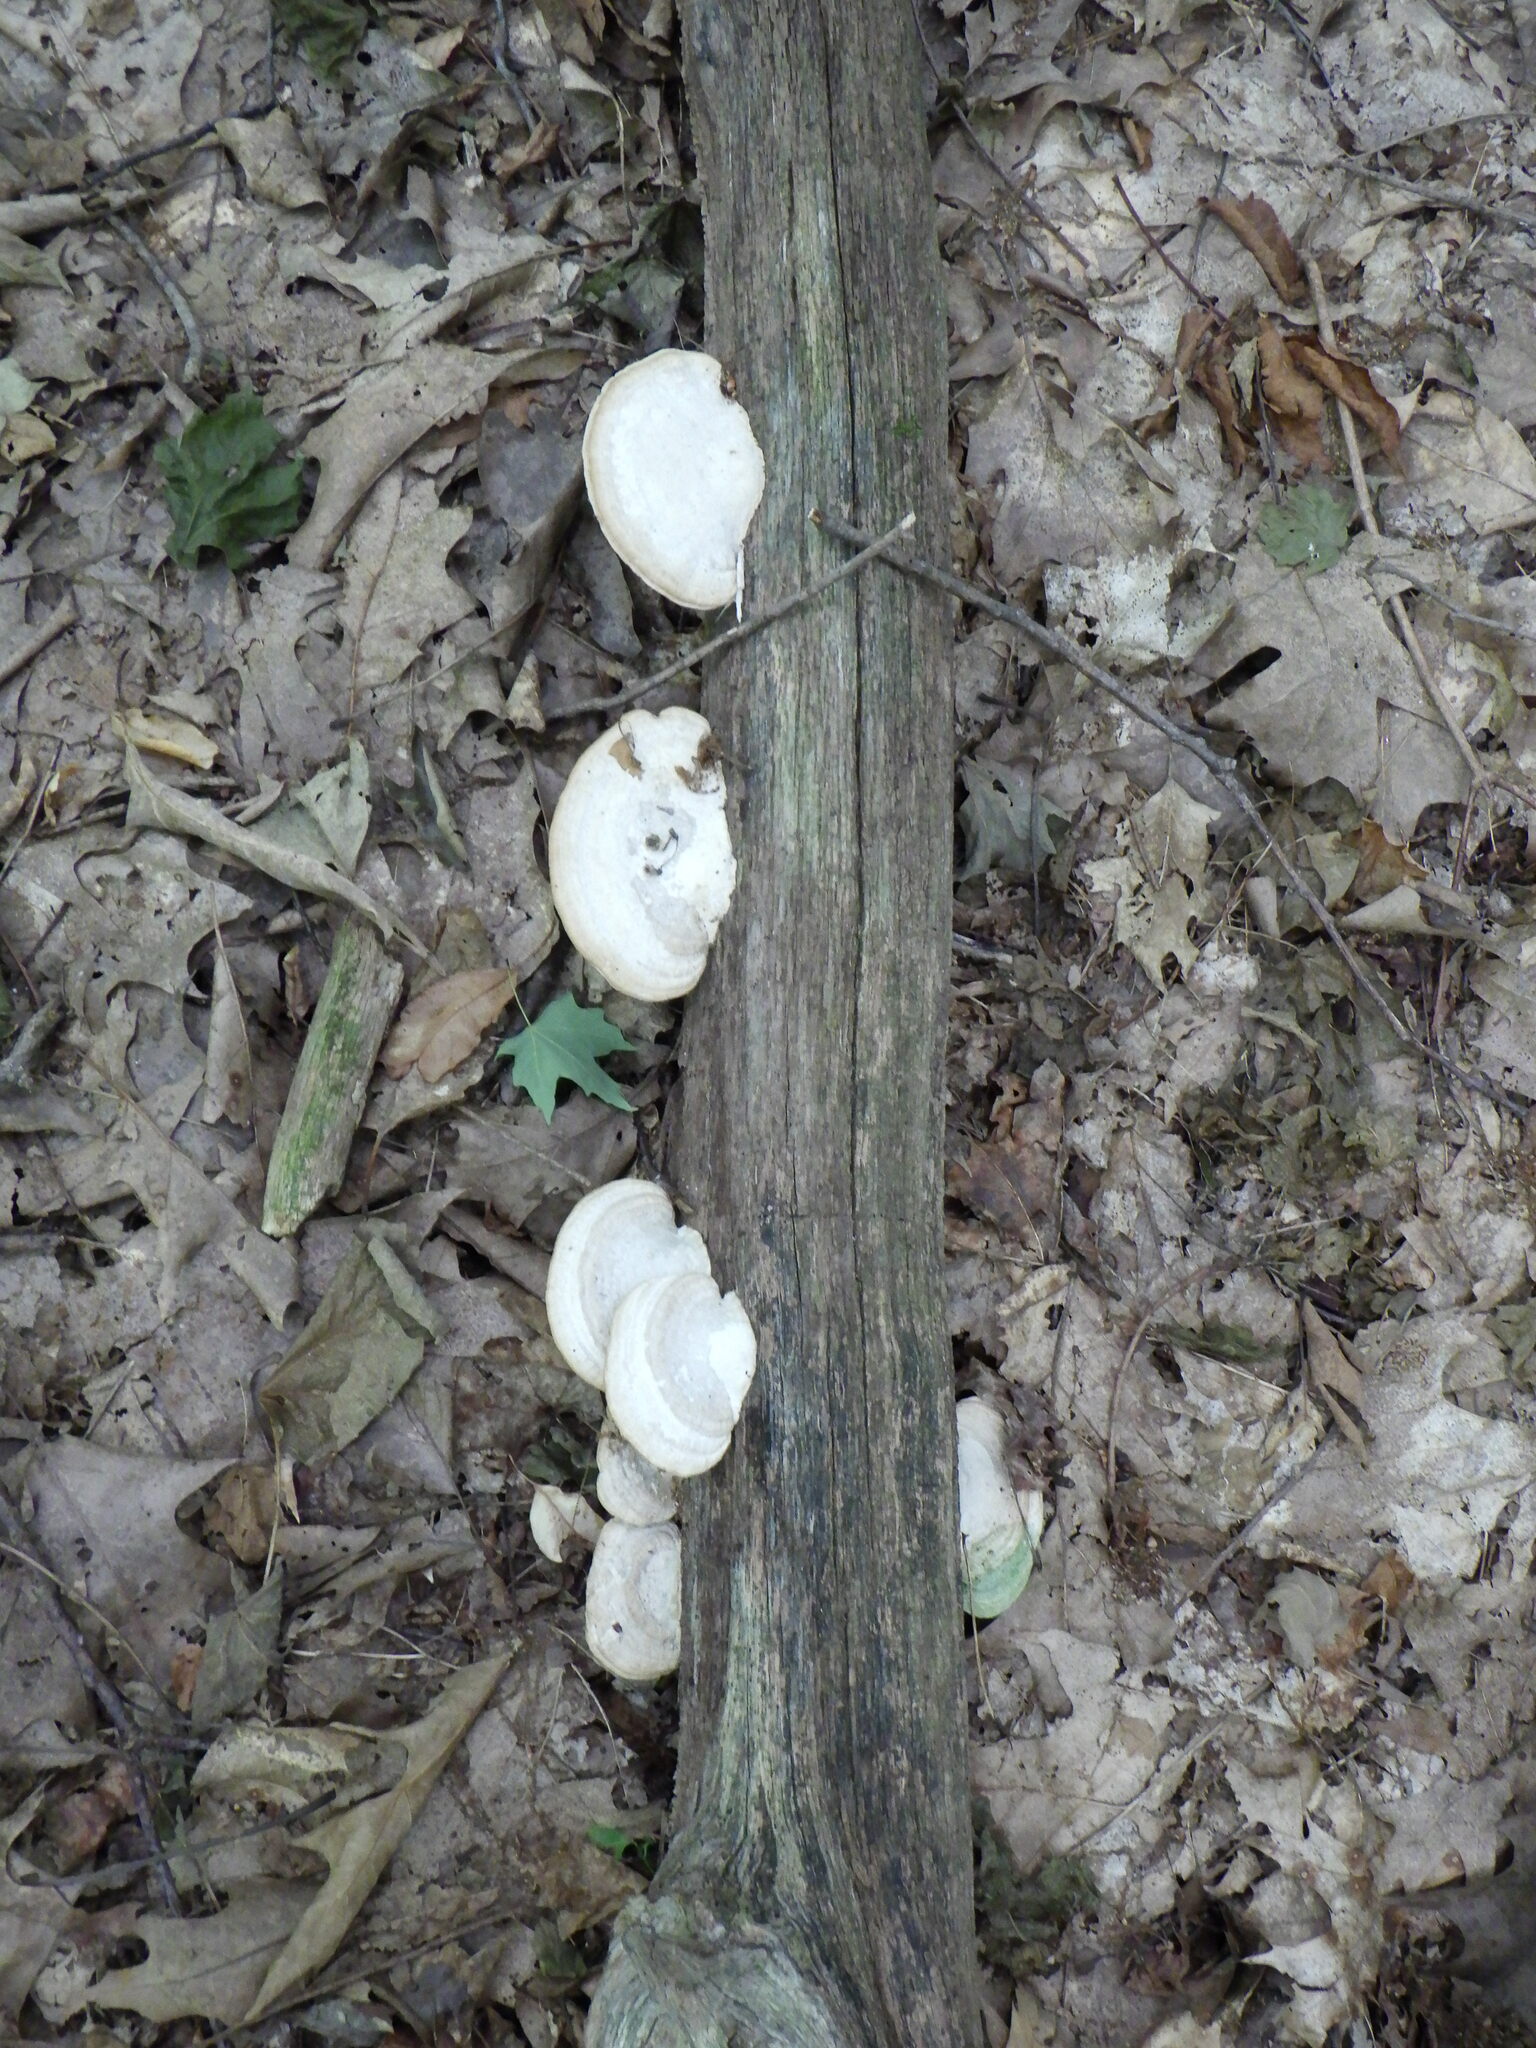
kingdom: Fungi
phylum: Basidiomycota
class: Agaricomycetes
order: Polyporales
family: Fomitopsidaceae
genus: Fomitopsis
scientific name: Fomitopsis
